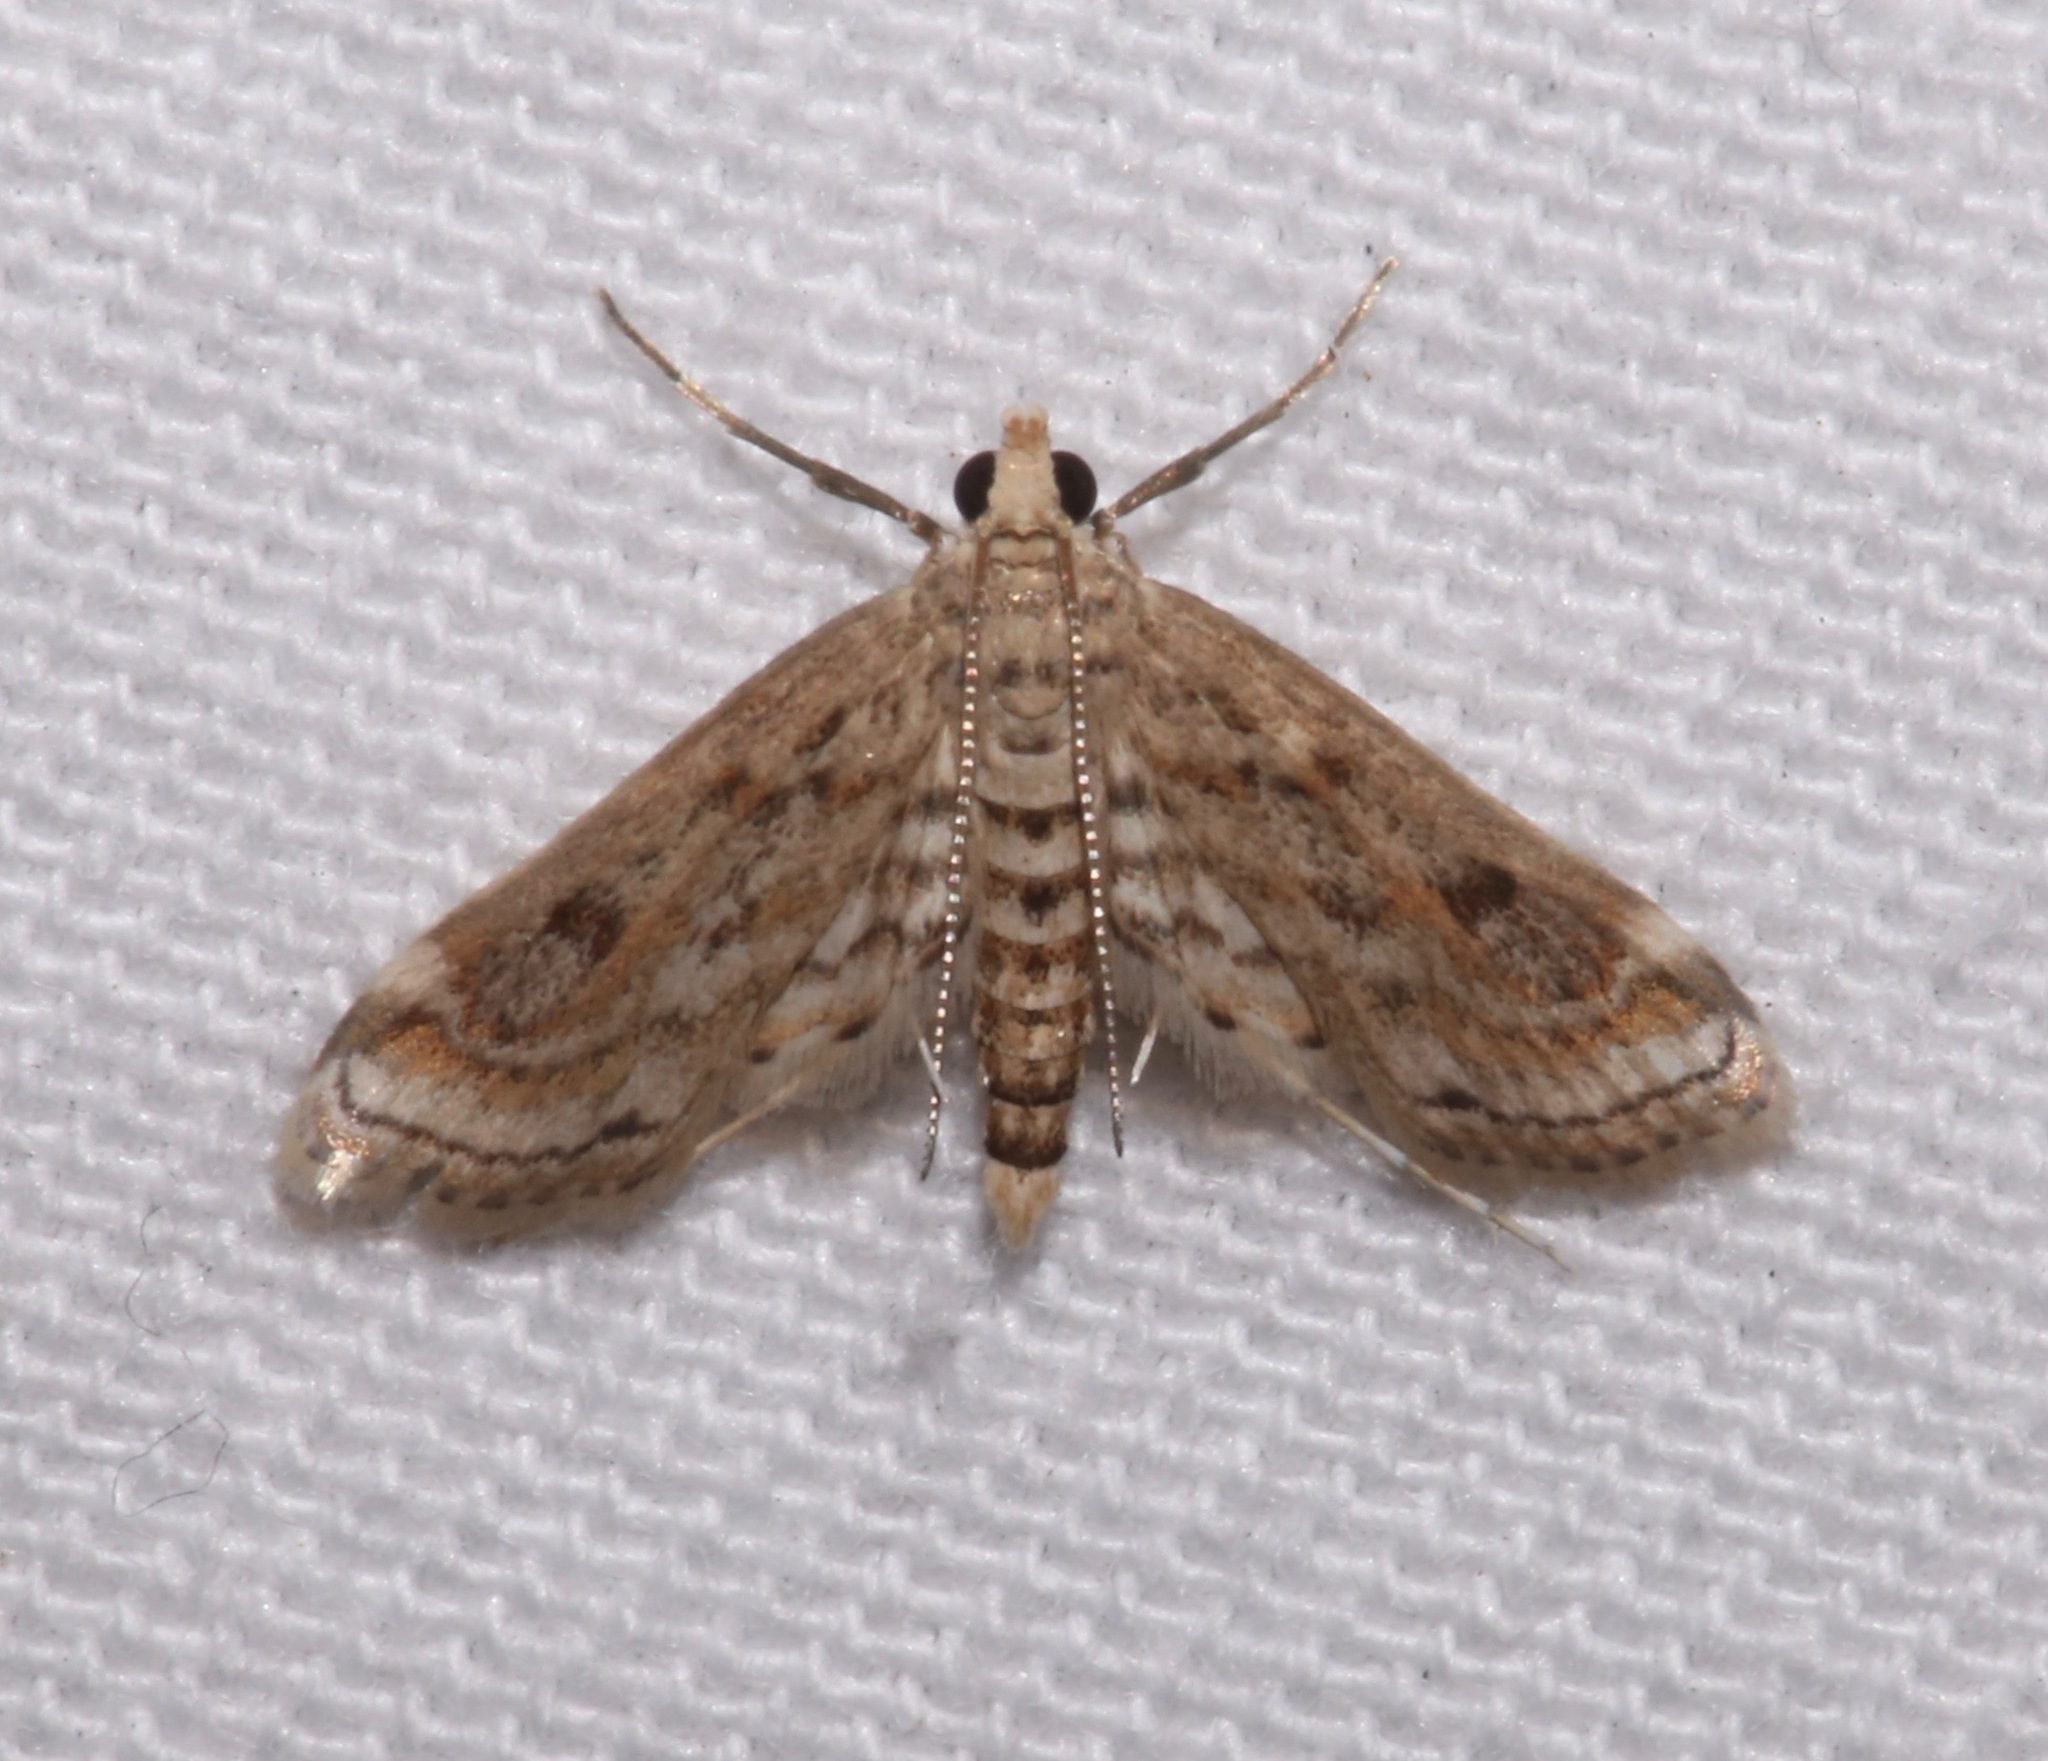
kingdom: Animalia
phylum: Arthropoda
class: Insecta
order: Lepidoptera
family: Crambidae
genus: Parapoynx
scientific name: Parapoynx allionealis
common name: Bladderwort casemaker
